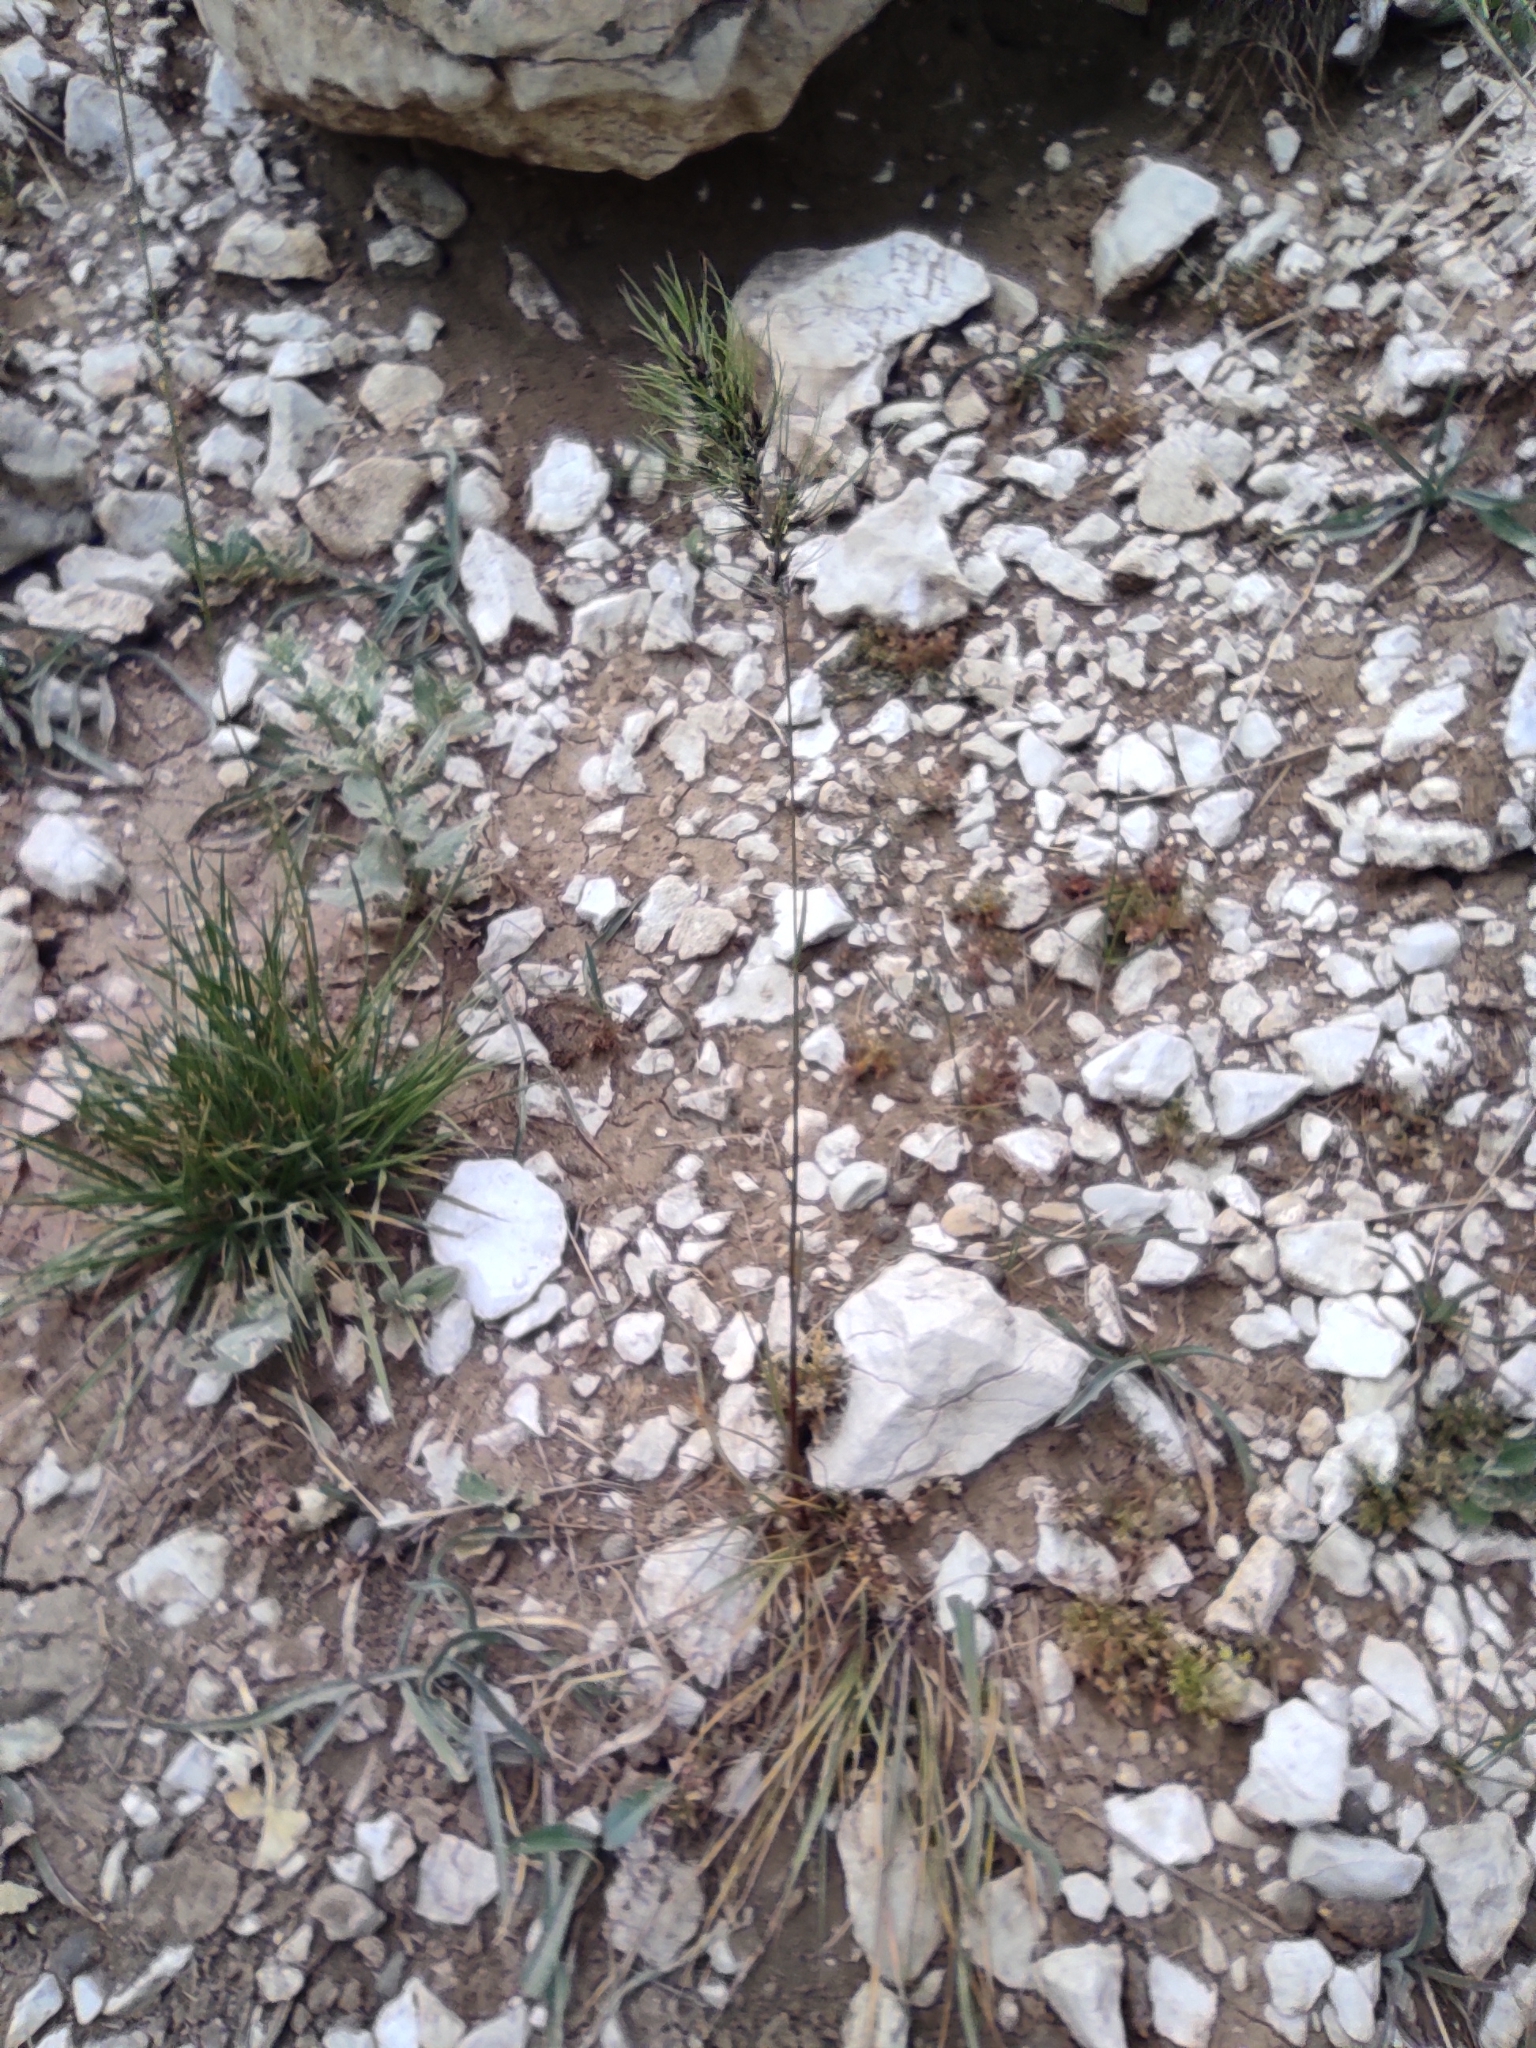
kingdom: Plantae
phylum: Tracheophyta
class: Liliopsida
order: Poales
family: Poaceae
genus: Poa
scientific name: Poa bulbosa
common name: Bulbous bluegrass
